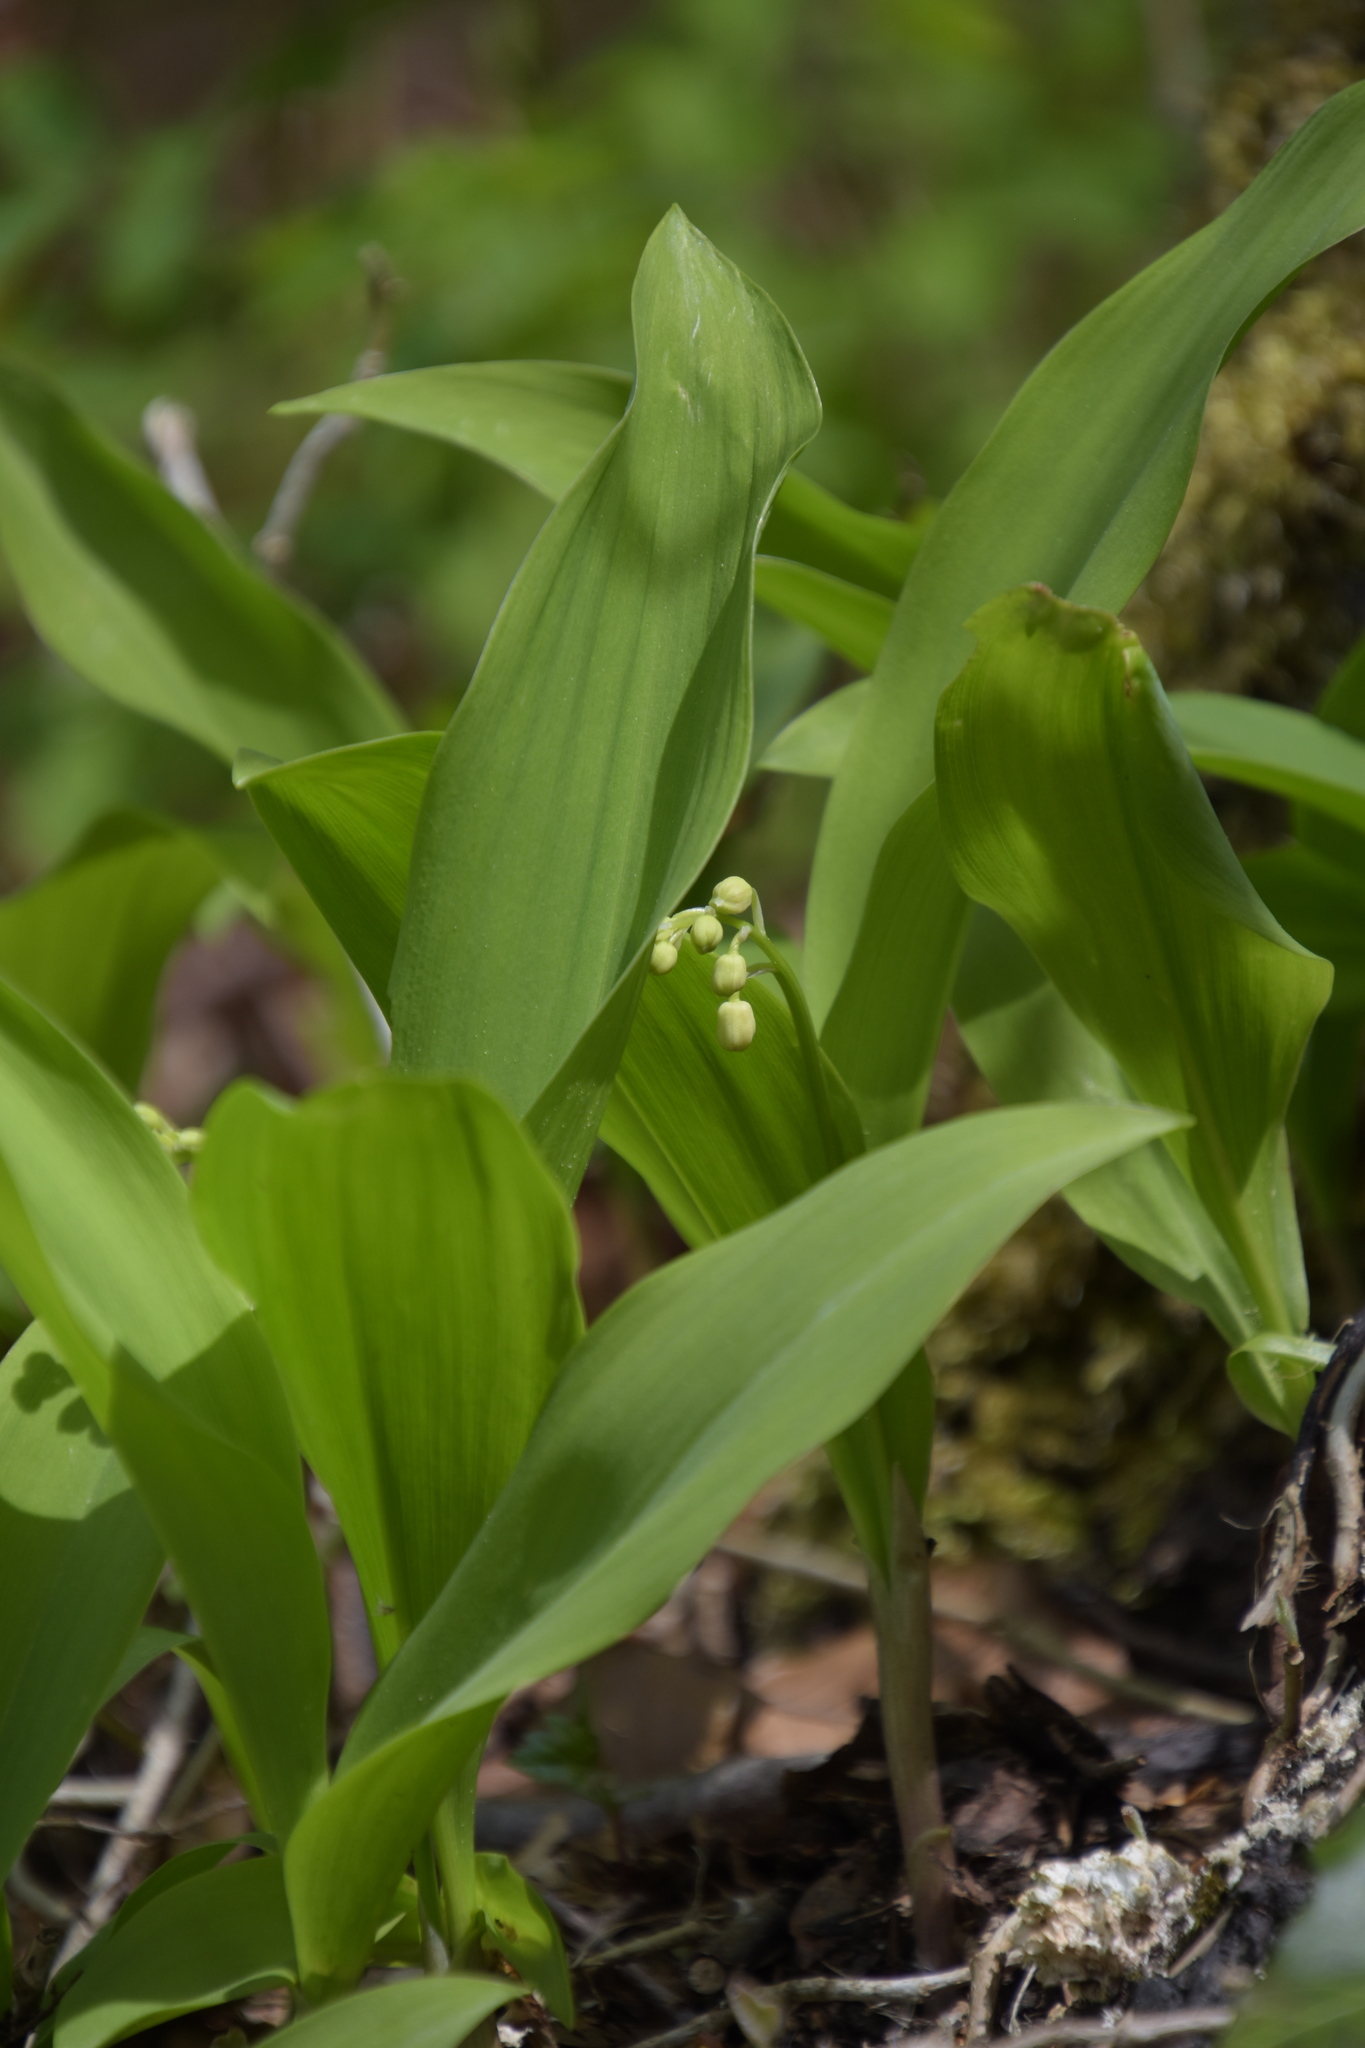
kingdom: Plantae
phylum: Tracheophyta
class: Liliopsida
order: Asparagales
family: Asparagaceae
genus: Convallaria
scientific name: Convallaria majalis
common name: Lily-of-the-valley
